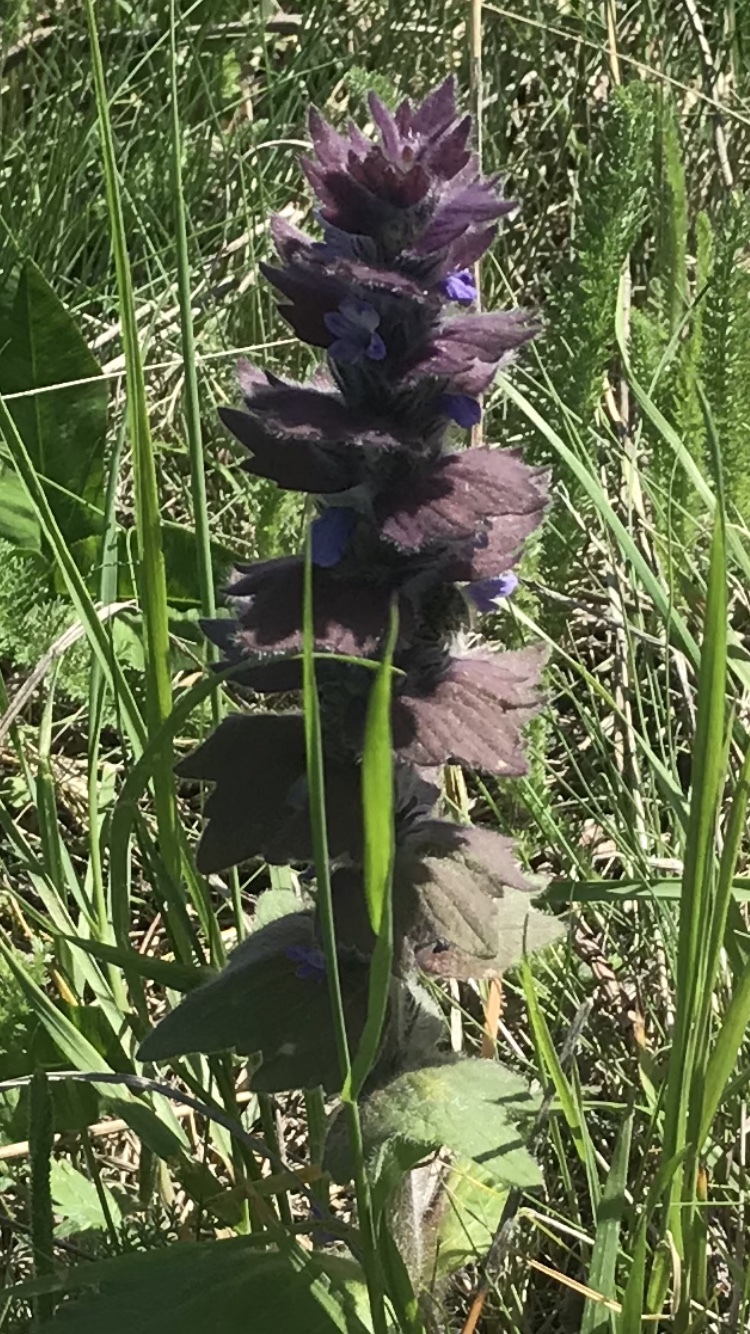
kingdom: Plantae
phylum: Tracheophyta
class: Magnoliopsida
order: Lamiales
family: Lamiaceae
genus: Ajuga
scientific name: Ajuga genevensis
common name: Blue bugle
